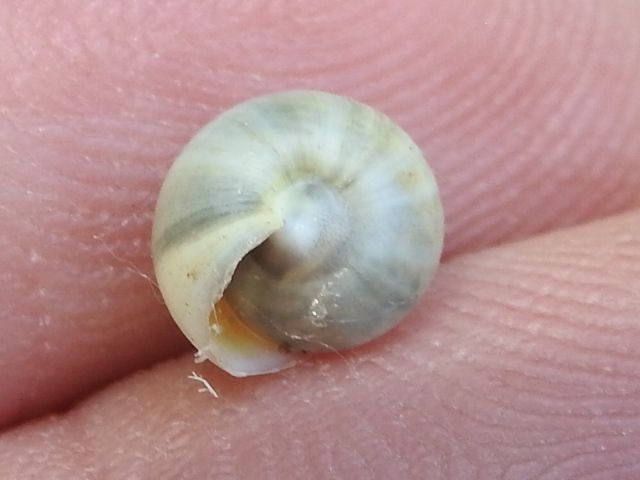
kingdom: Animalia
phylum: Mollusca
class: Gastropoda
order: Cycloneritida
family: Helicinidae
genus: Helicina
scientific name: Helicina orbiculata
